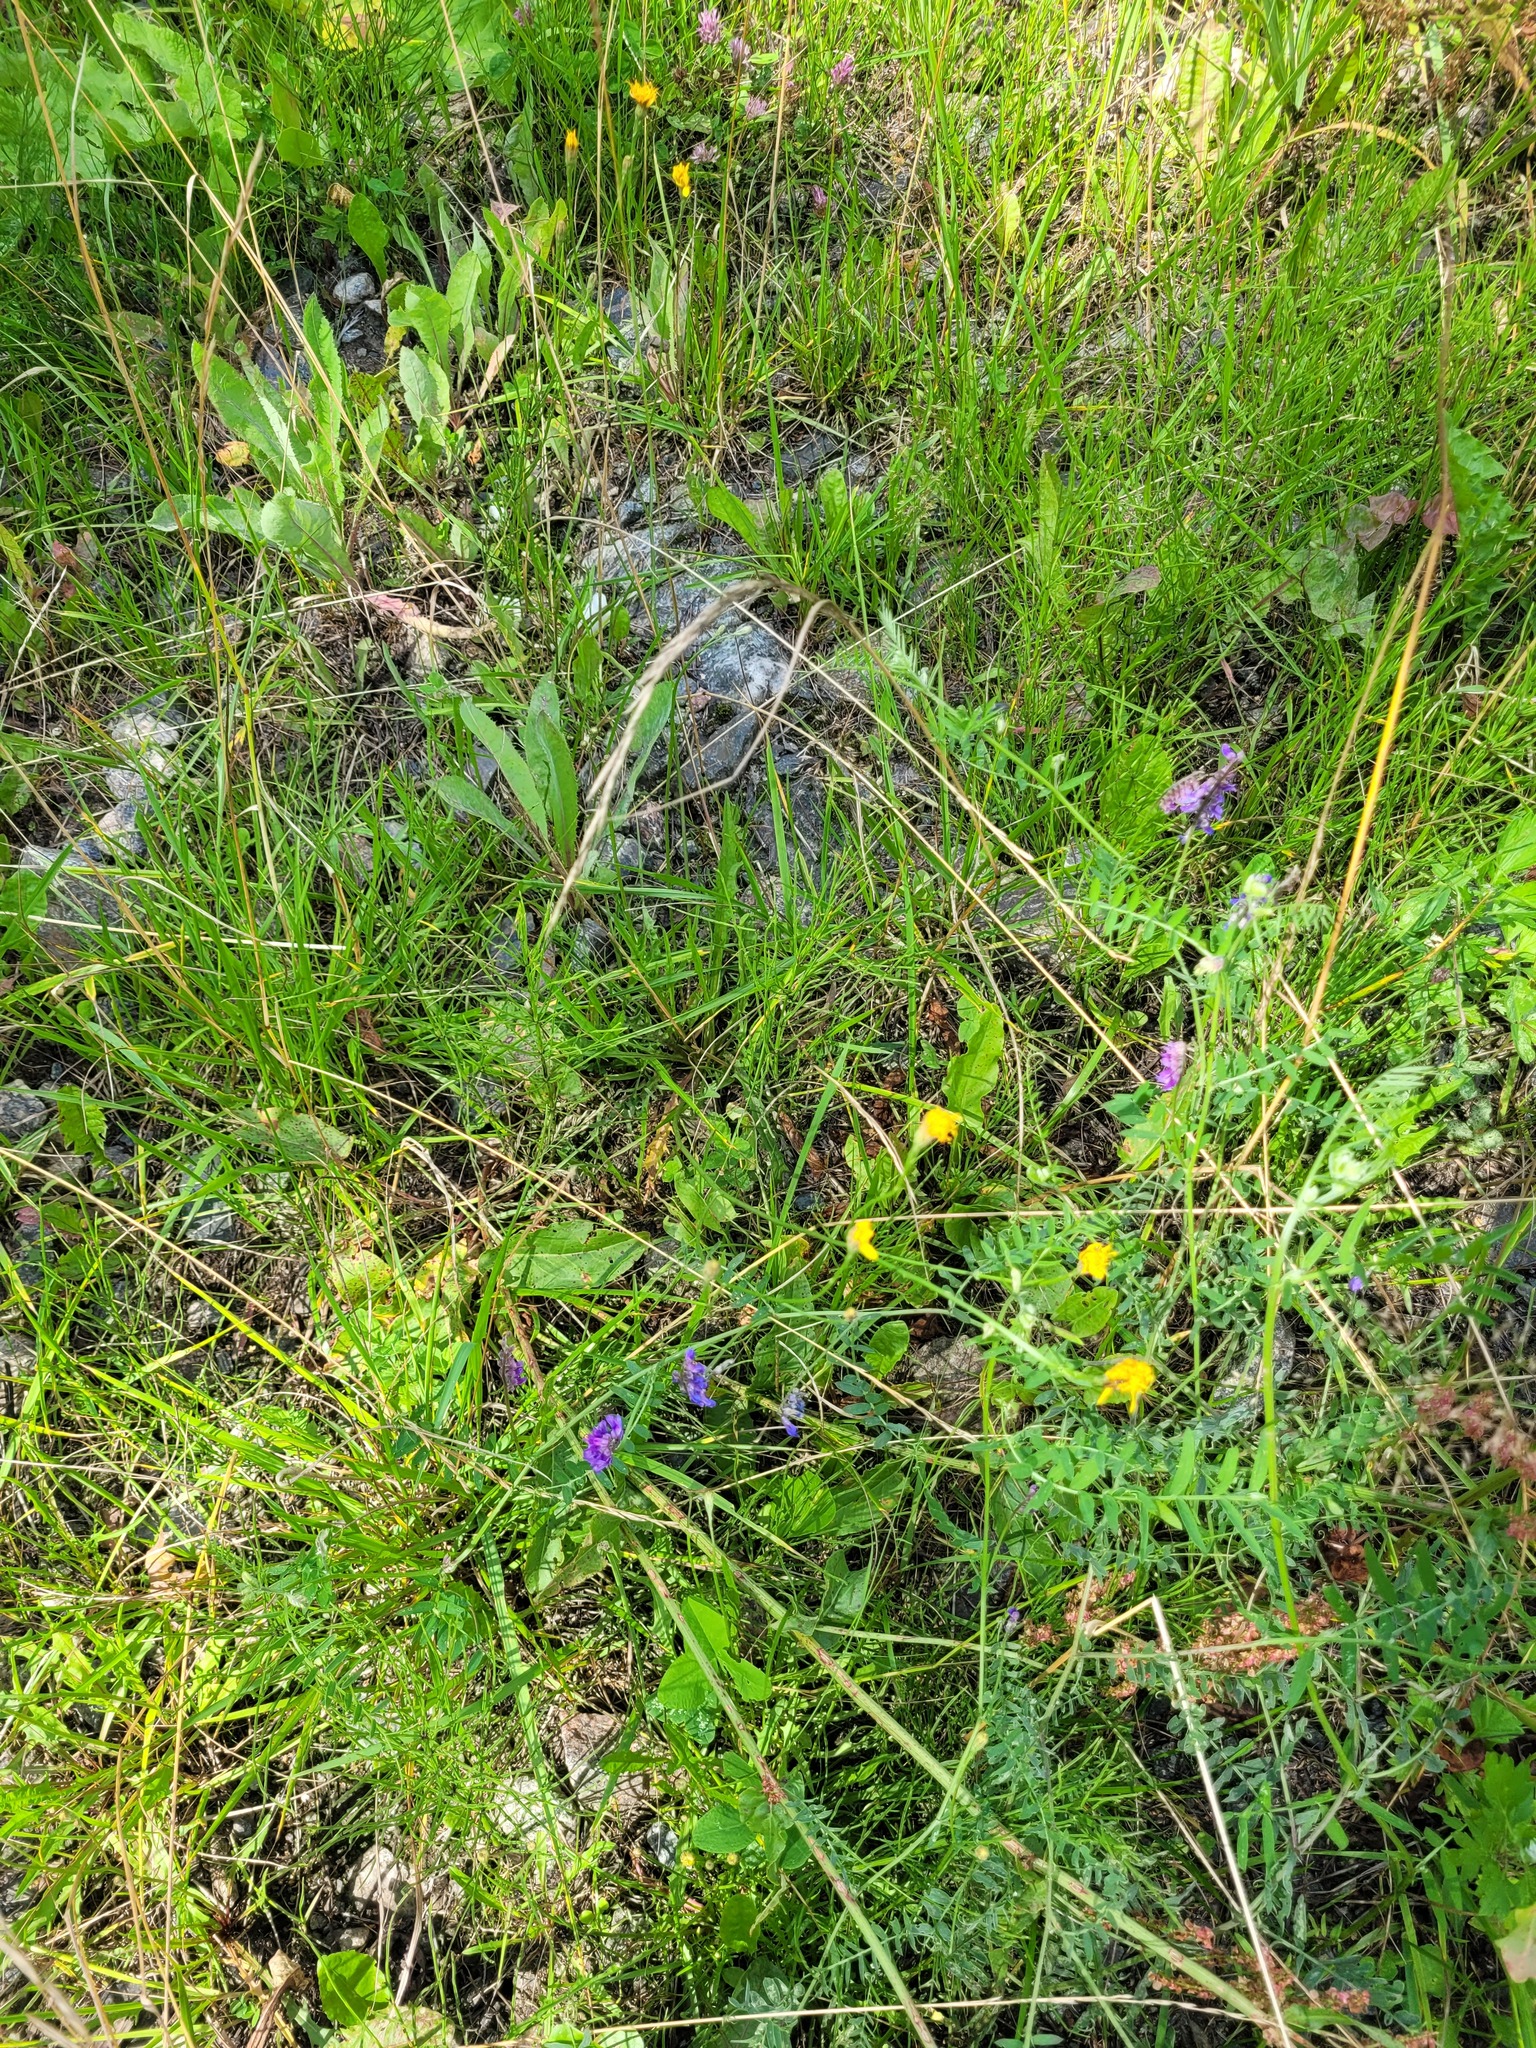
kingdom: Plantae
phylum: Tracheophyta
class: Magnoliopsida
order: Asterales
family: Asteraceae
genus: Scorzoneroides
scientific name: Scorzoneroides autumnalis
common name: Autumn hawkbit
